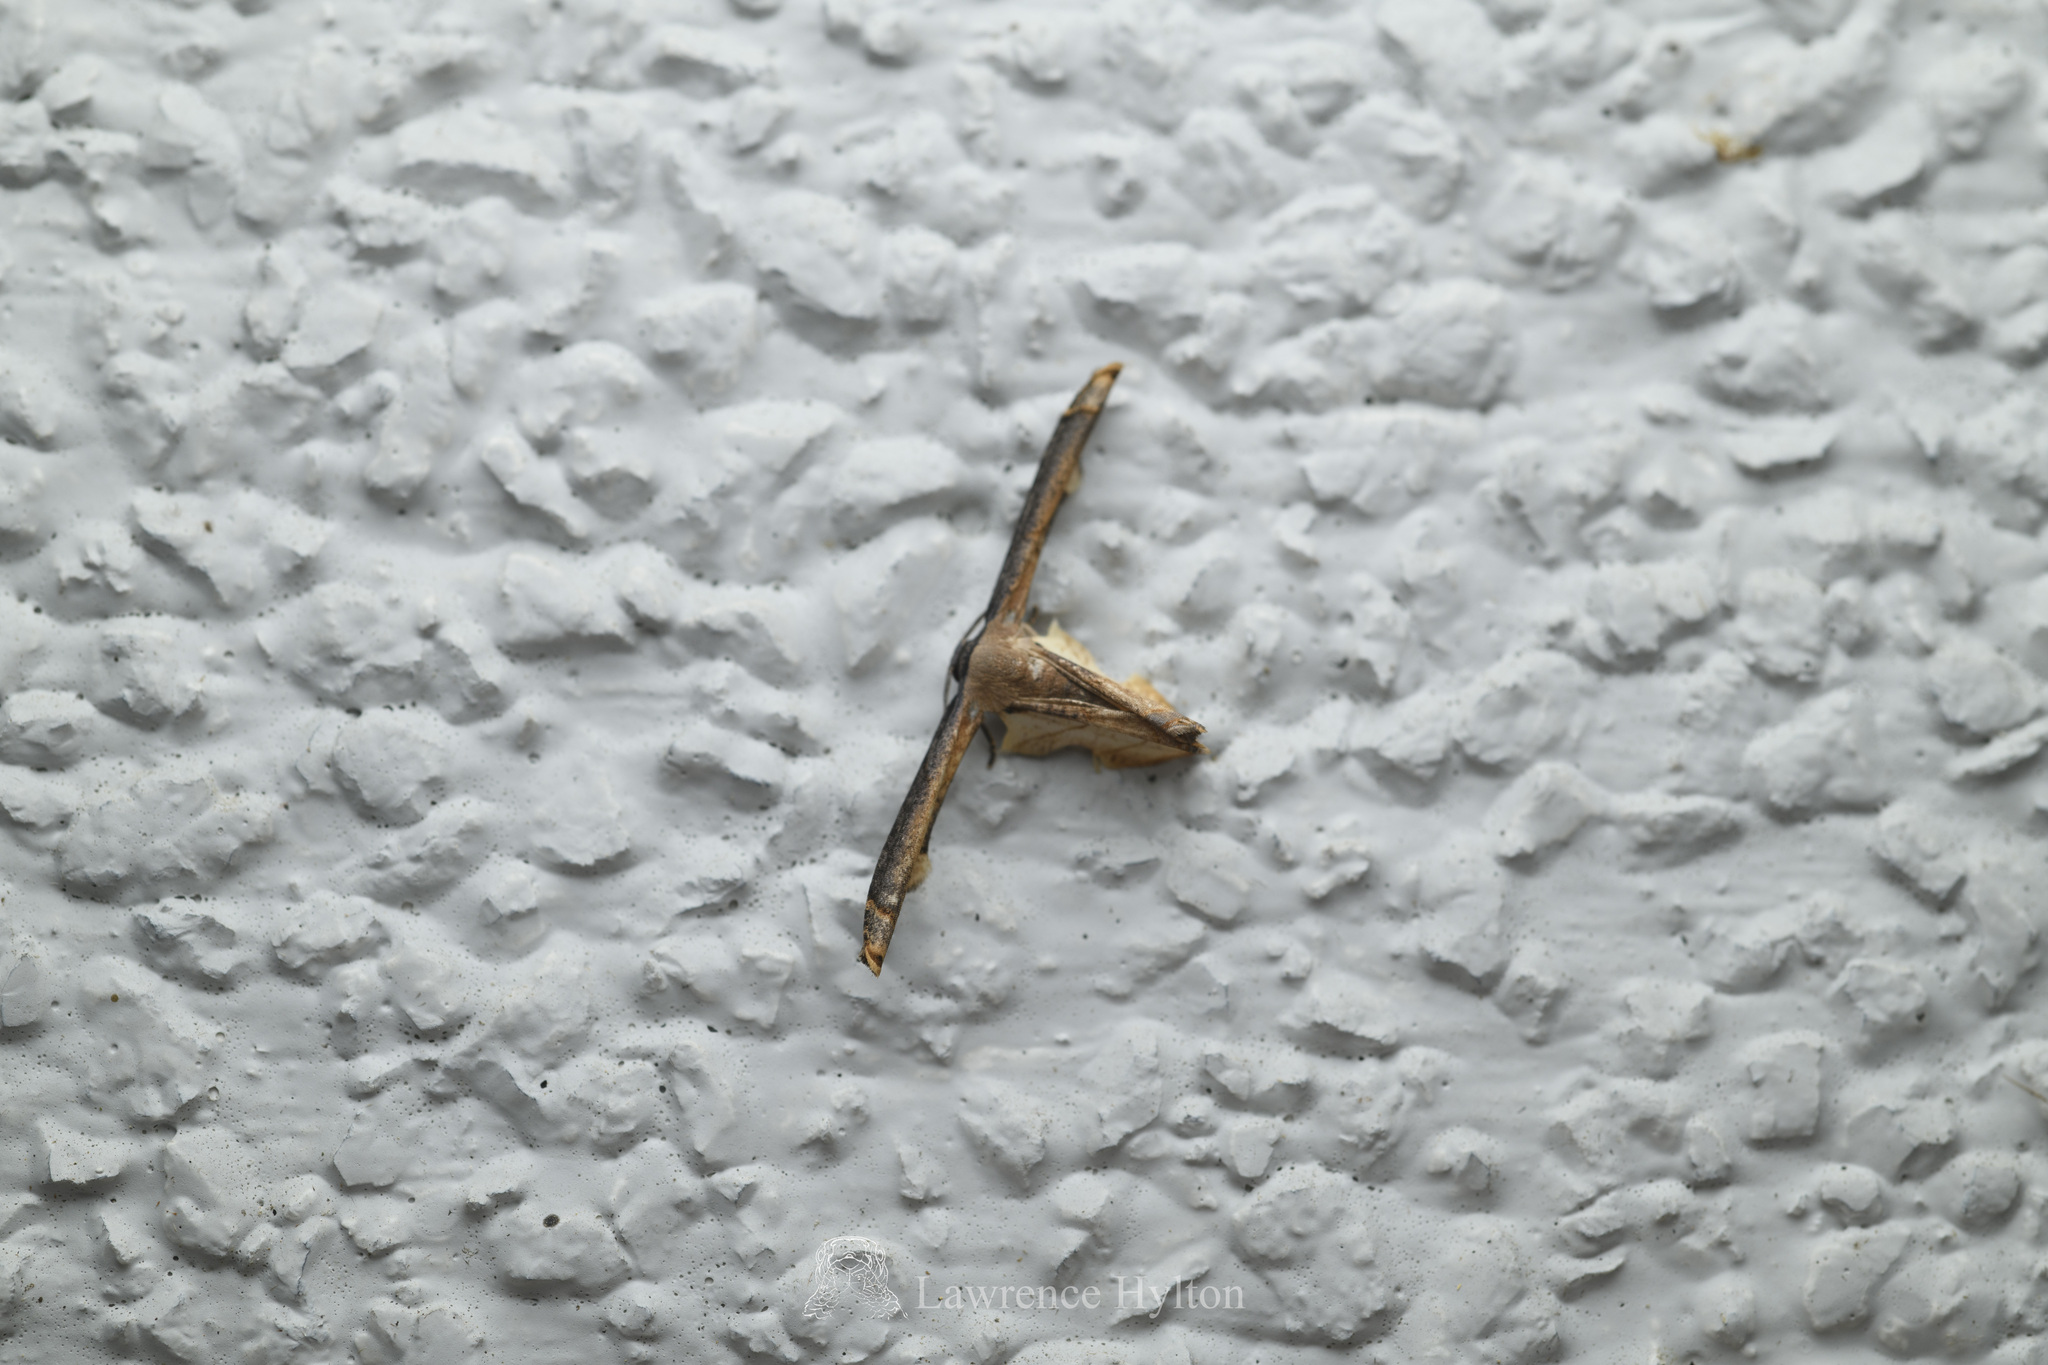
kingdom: Animalia
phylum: Arthropoda
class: Insecta
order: Lepidoptera
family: Uraniidae
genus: Warreniplema
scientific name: Warreniplema fumicosta
